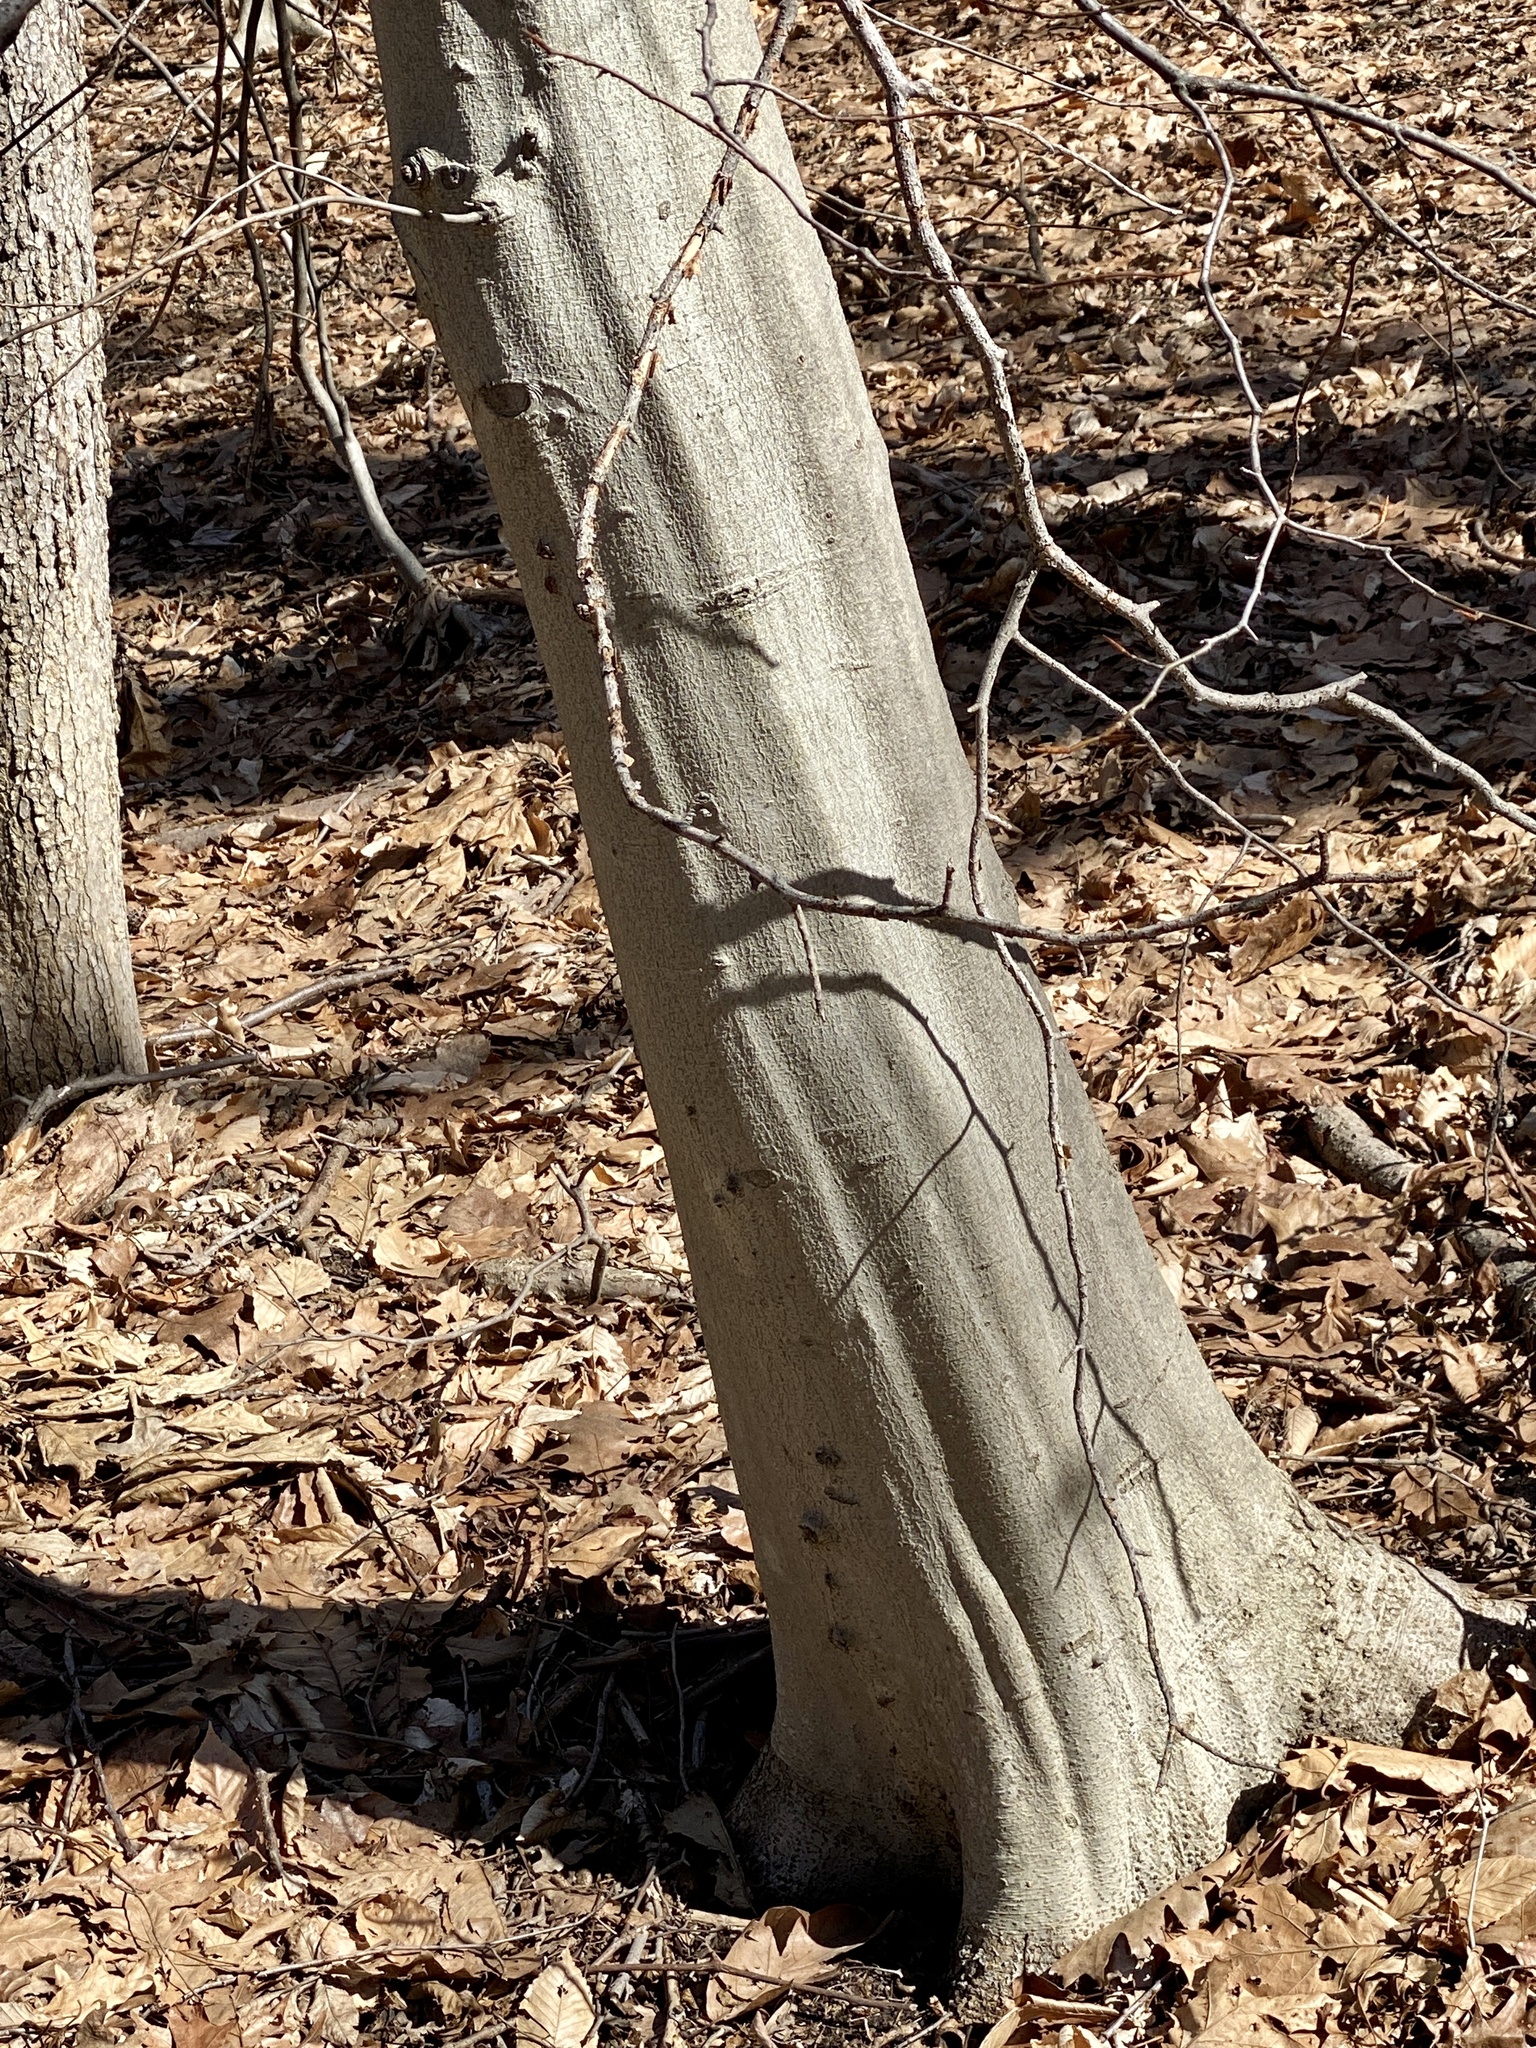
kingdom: Plantae
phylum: Tracheophyta
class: Magnoliopsida
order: Fagales
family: Fagaceae
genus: Fagus
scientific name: Fagus grandifolia
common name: American beech
